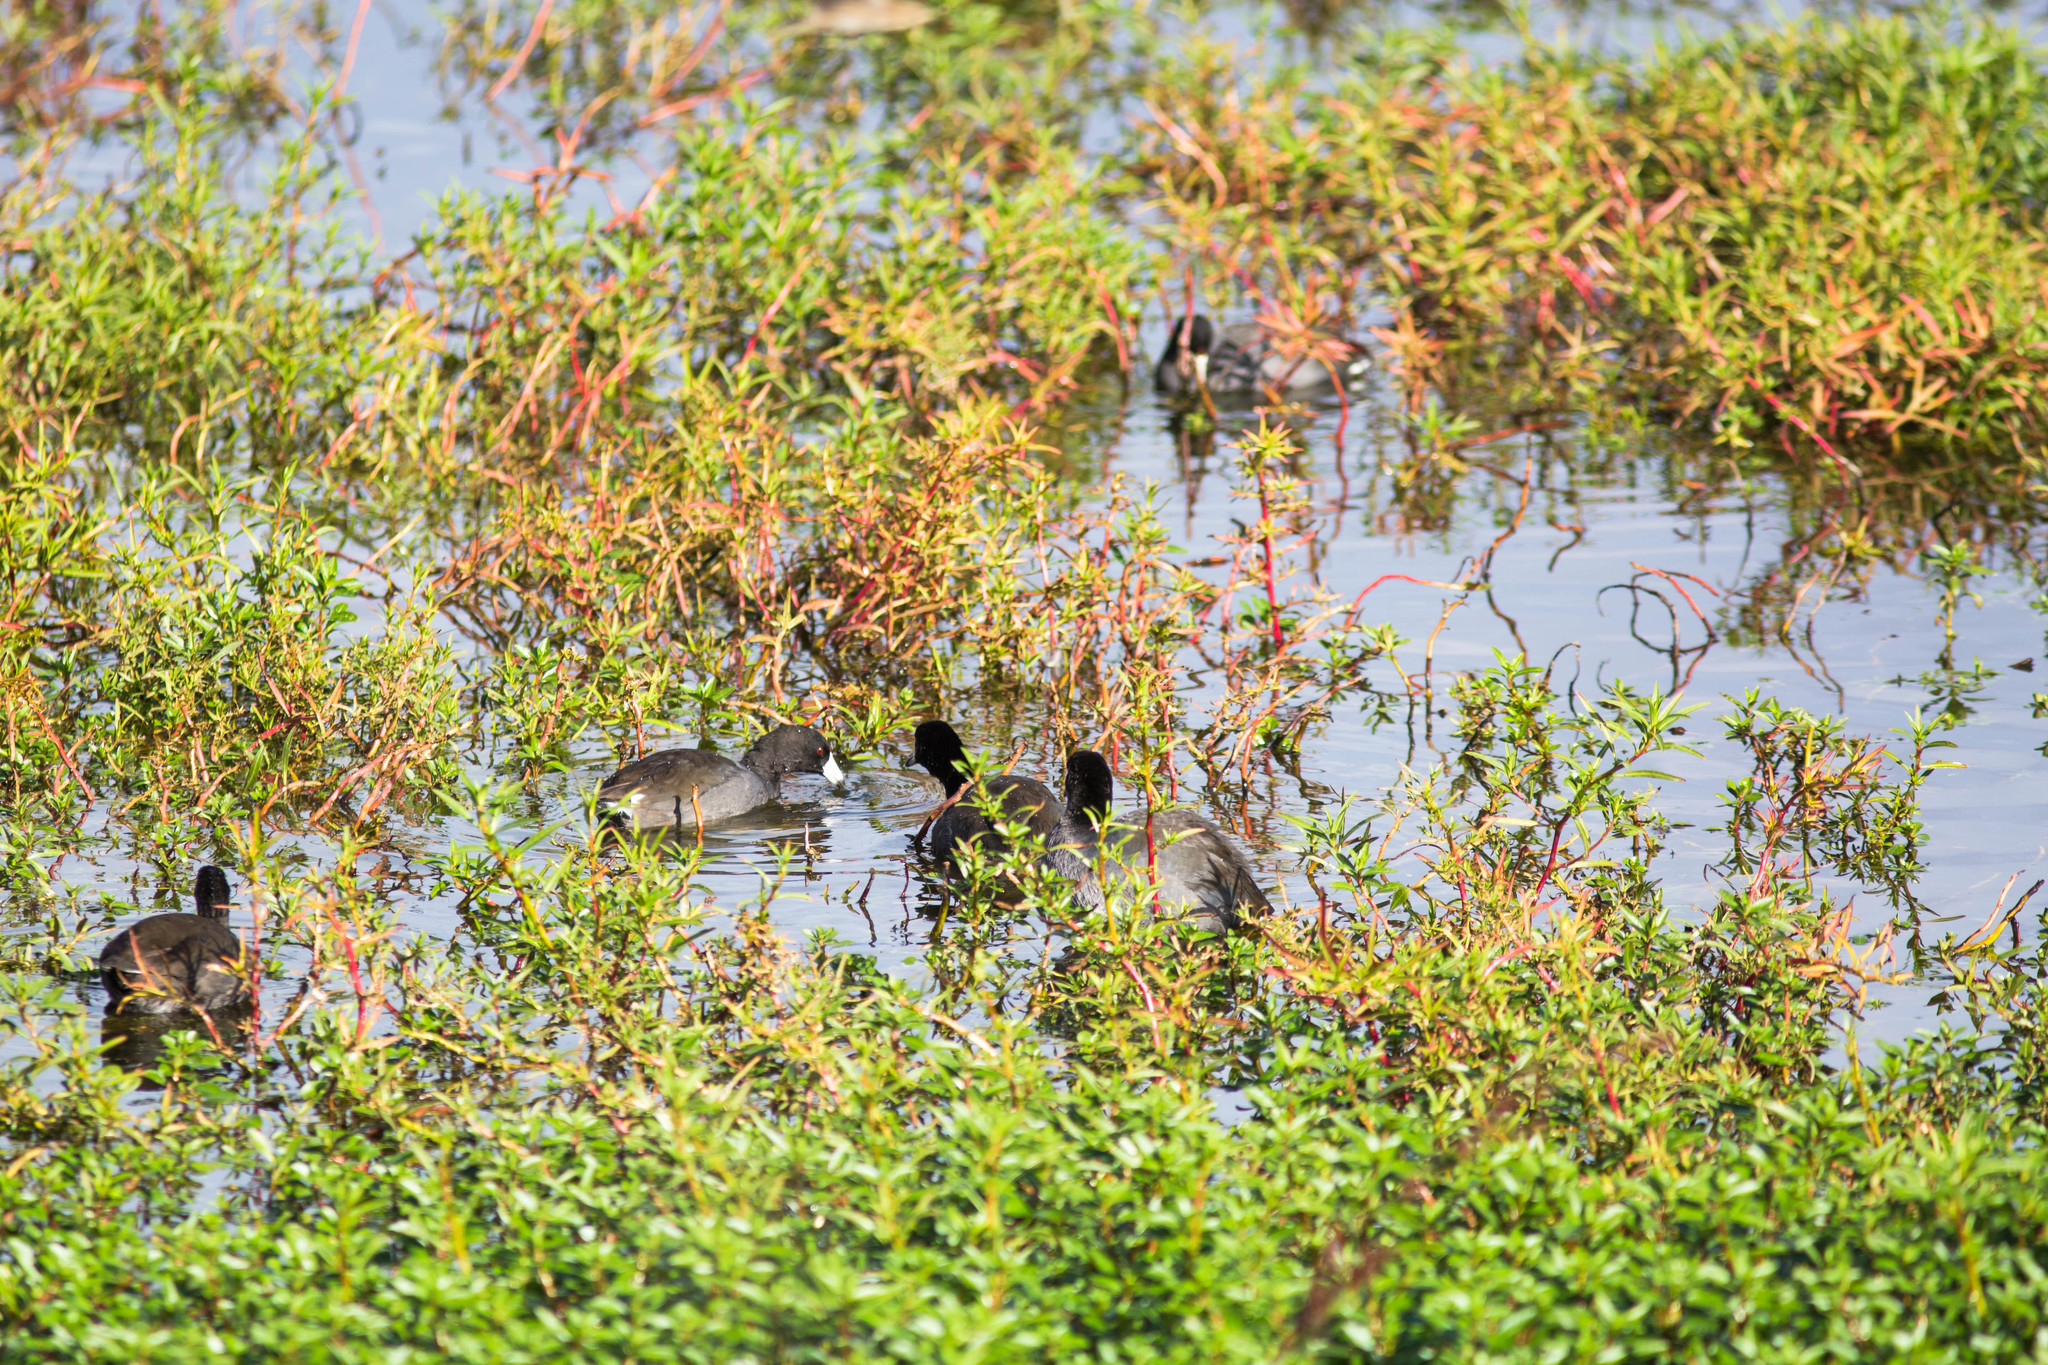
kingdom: Animalia
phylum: Chordata
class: Aves
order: Gruiformes
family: Rallidae
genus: Fulica
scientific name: Fulica americana
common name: American coot
